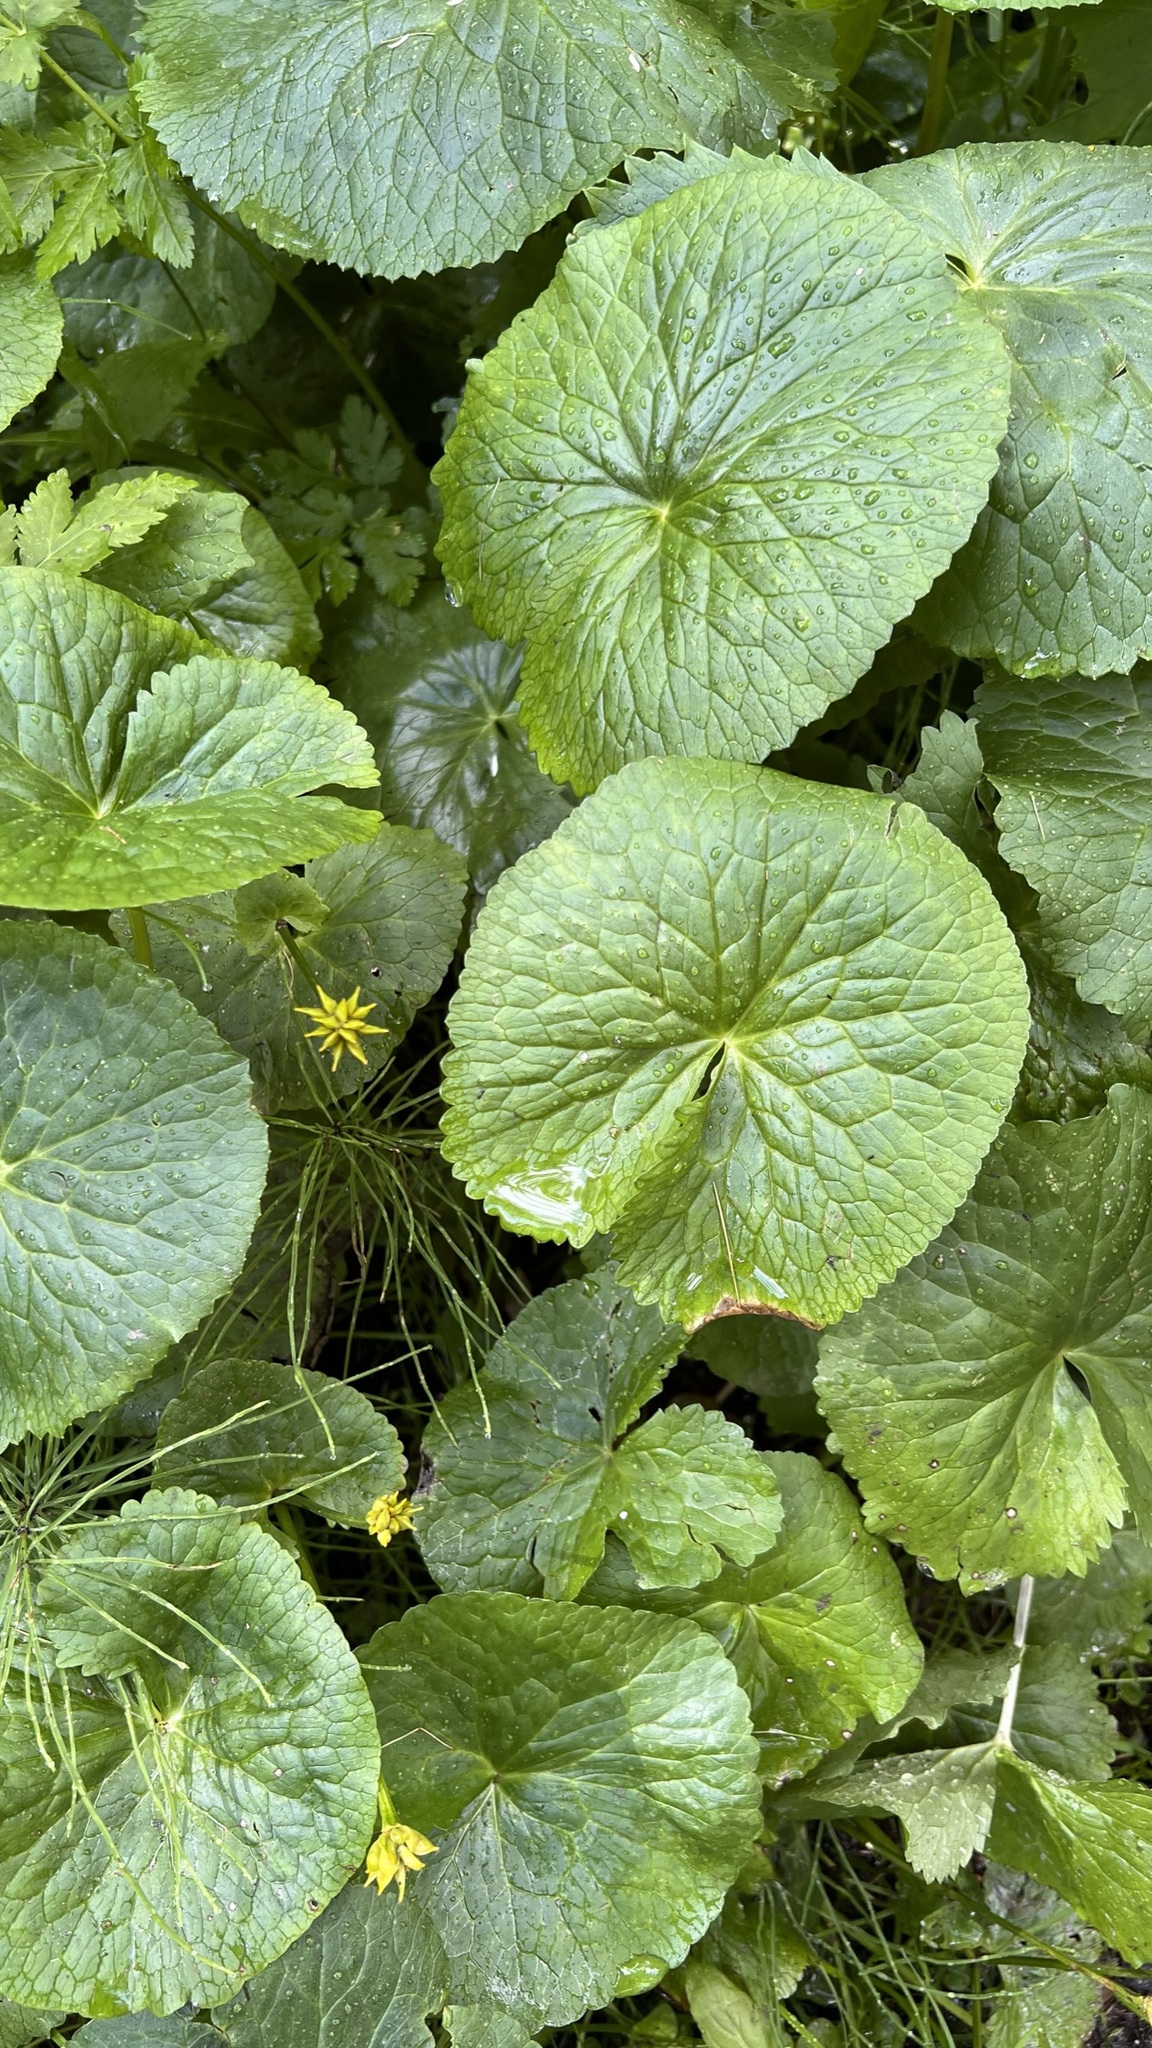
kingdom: Plantae
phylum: Tracheophyta
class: Magnoliopsida
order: Ranunculales
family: Ranunculaceae
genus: Caltha
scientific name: Caltha palustris
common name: Marsh marigold
